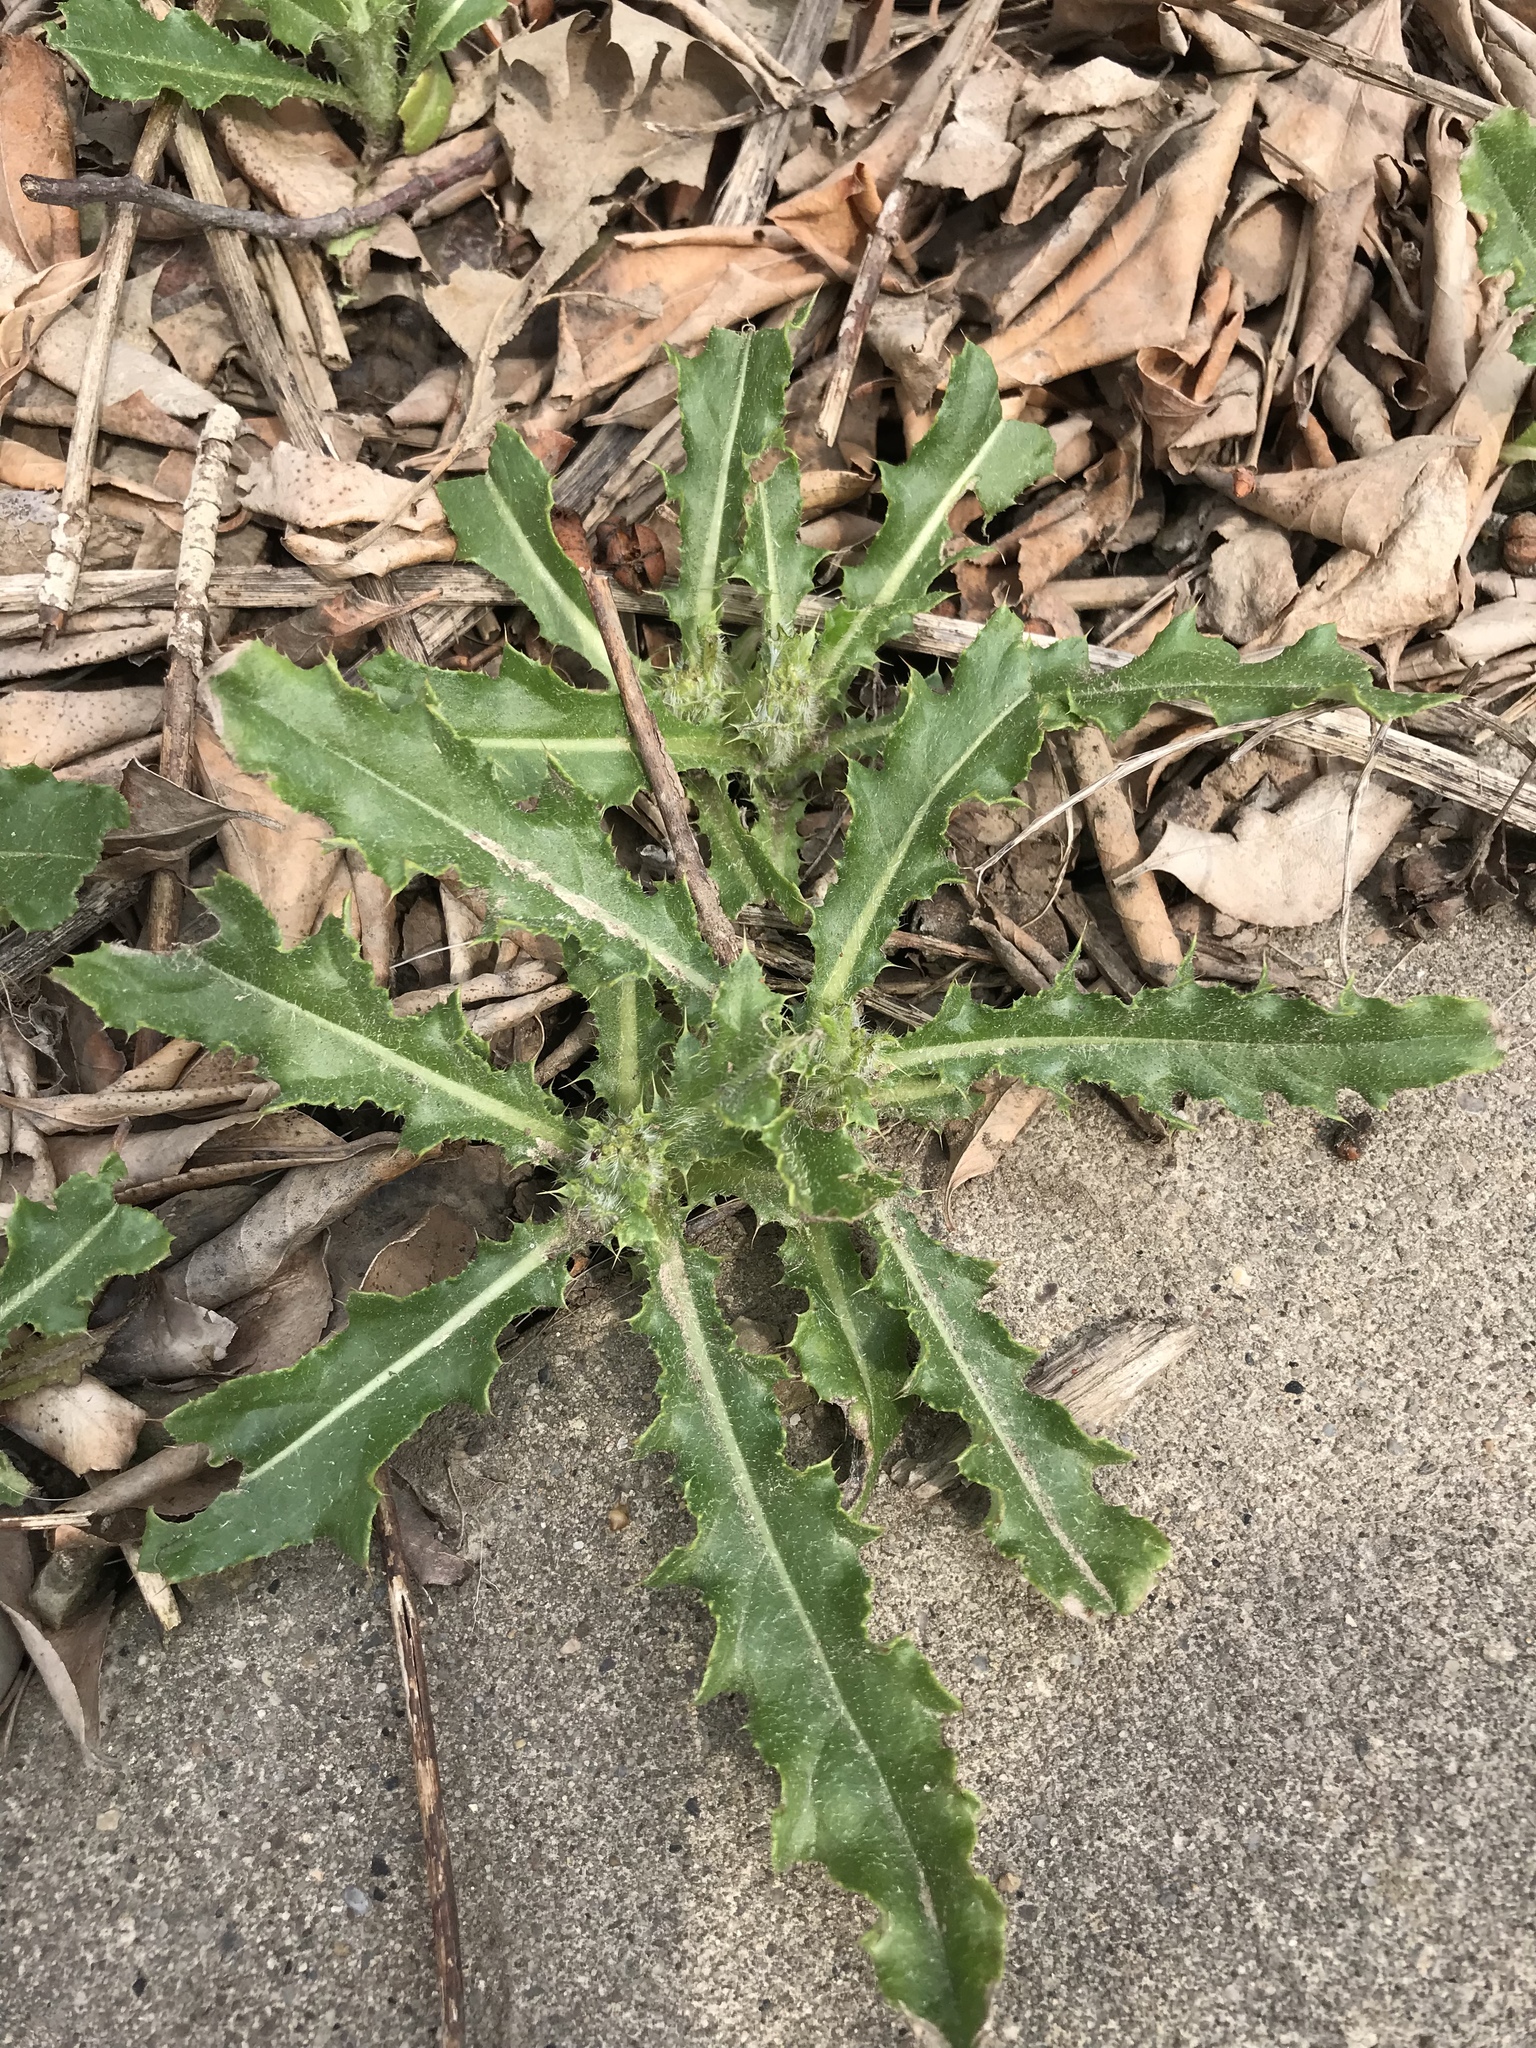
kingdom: Plantae
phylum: Tracheophyta
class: Magnoliopsida
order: Asterales
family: Asteraceae
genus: Cirsium
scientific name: Cirsium arvense
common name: Creeping thistle
